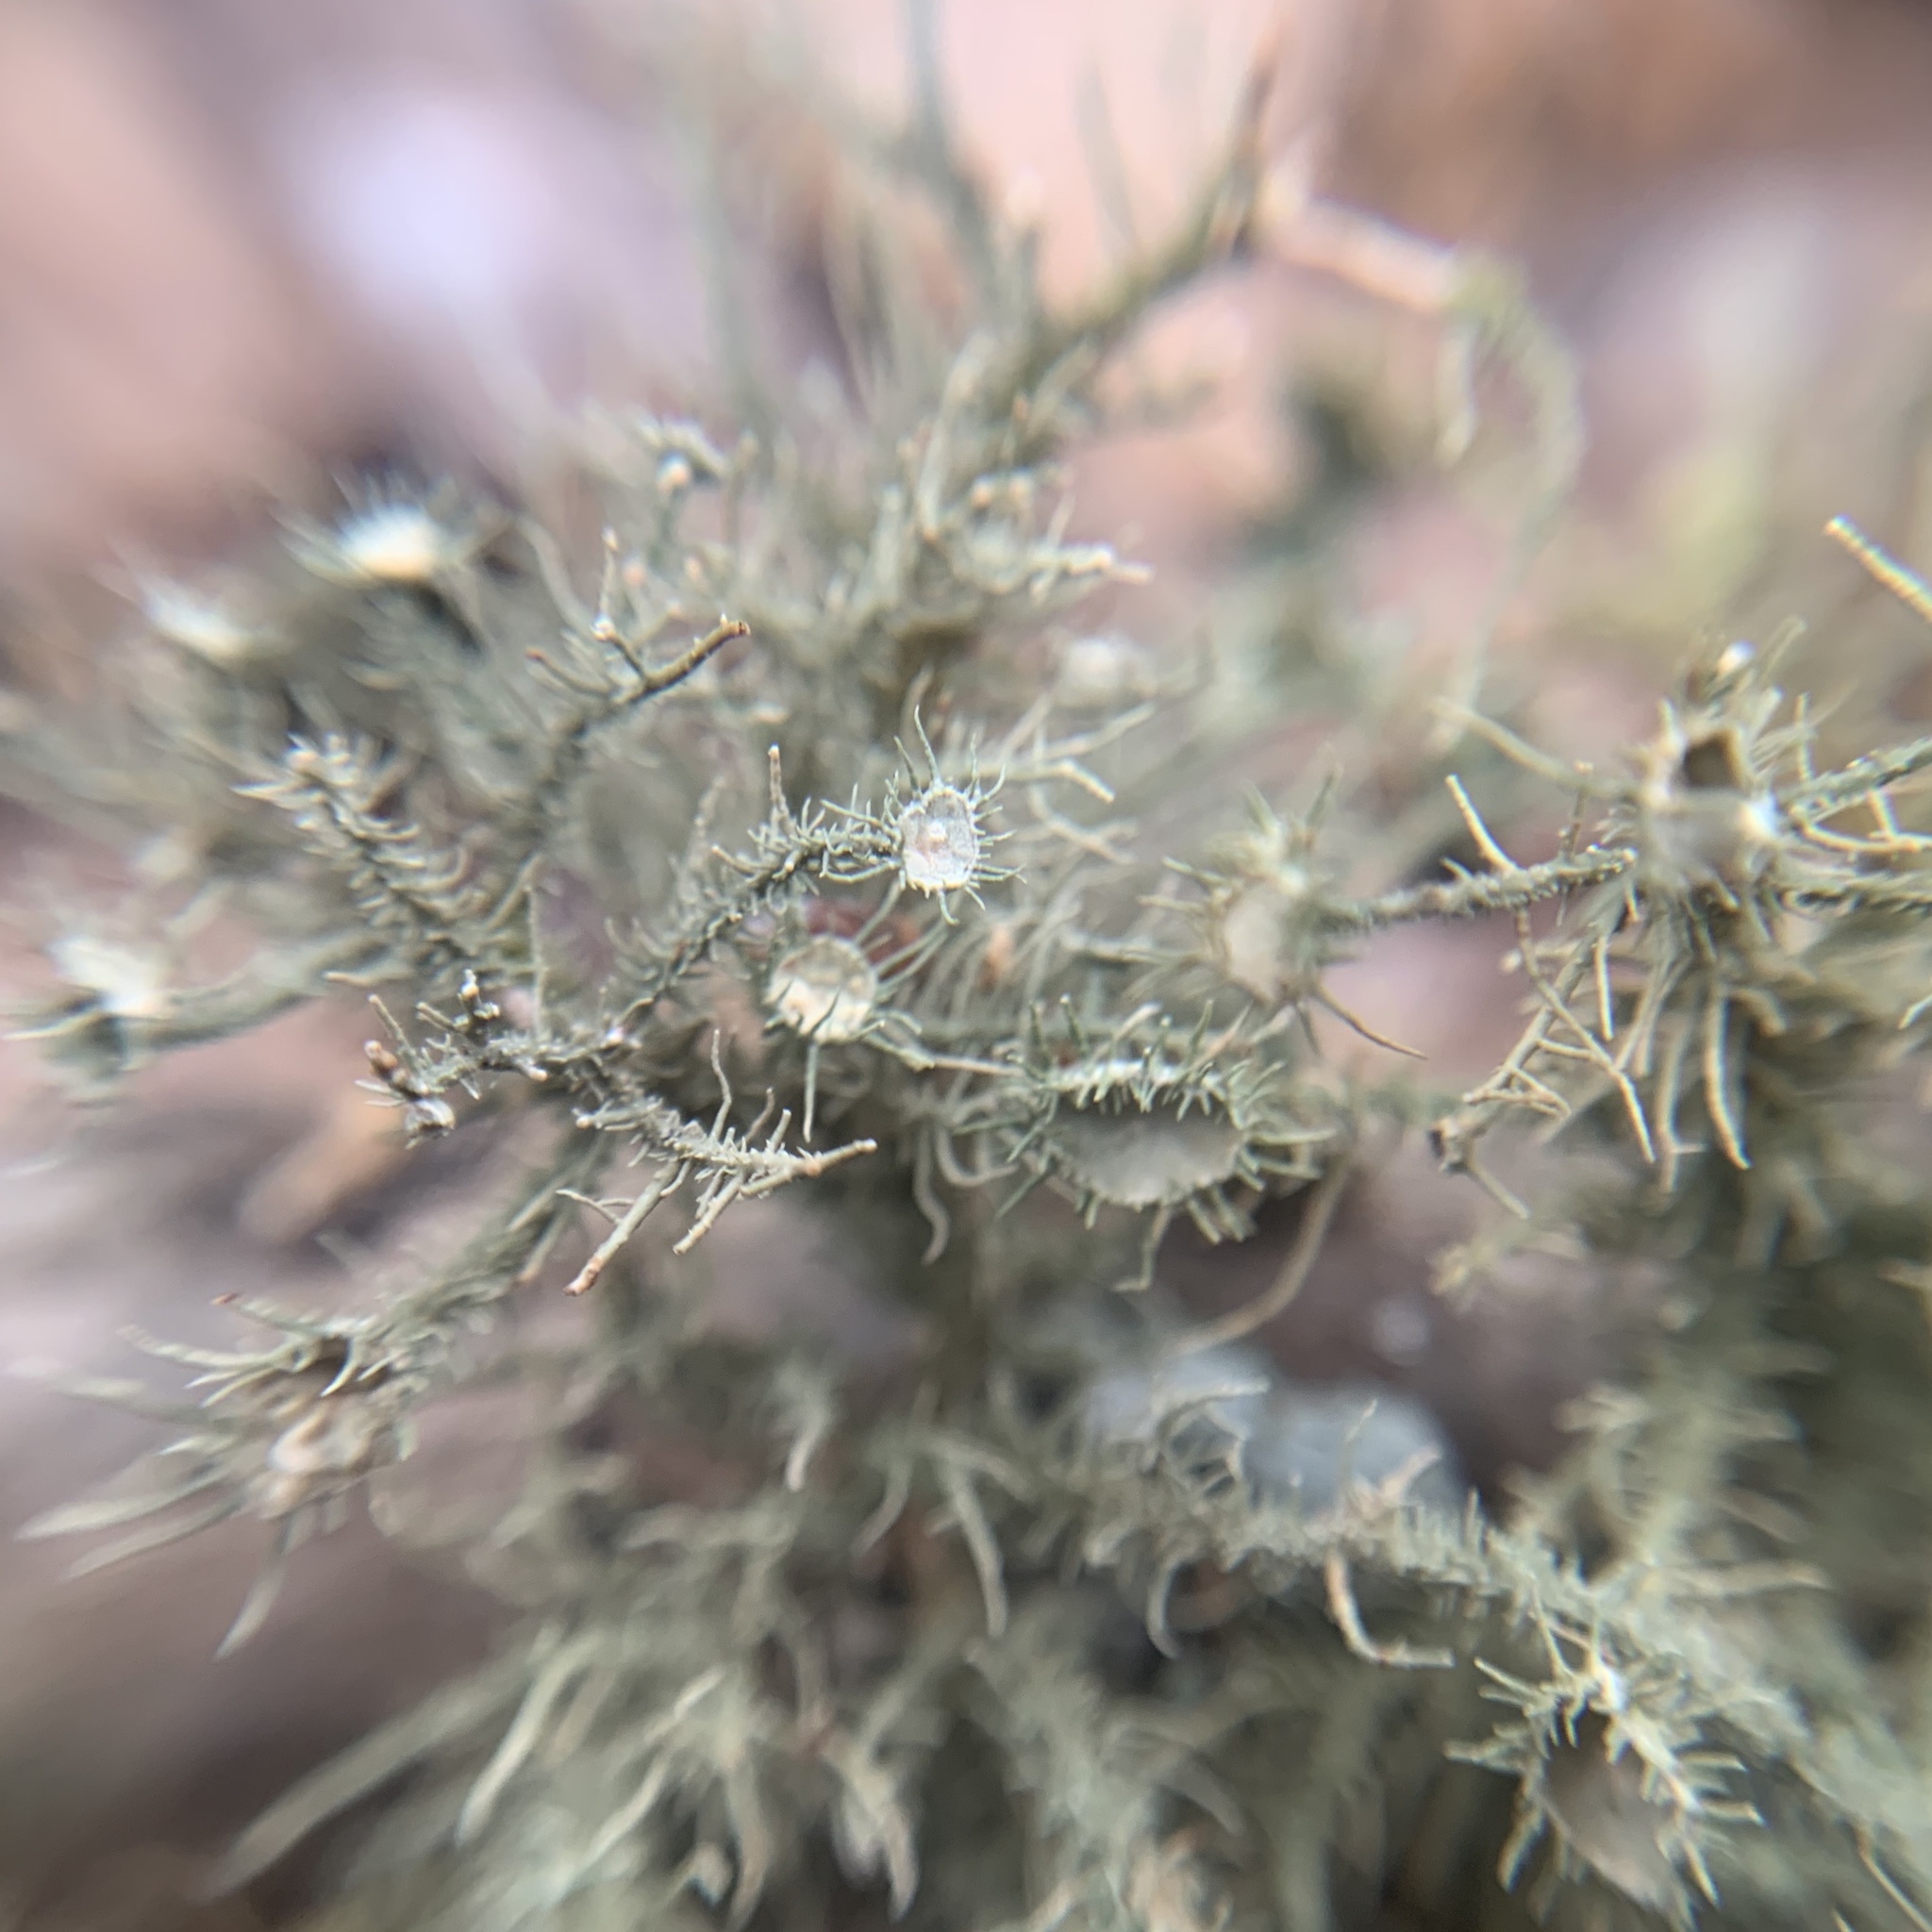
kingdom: Fungi
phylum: Ascomycota
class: Lecanoromycetes
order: Lecanorales
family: Parmeliaceae
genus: Usnea
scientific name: Usnea strigosa
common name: Bushy beard lichen
